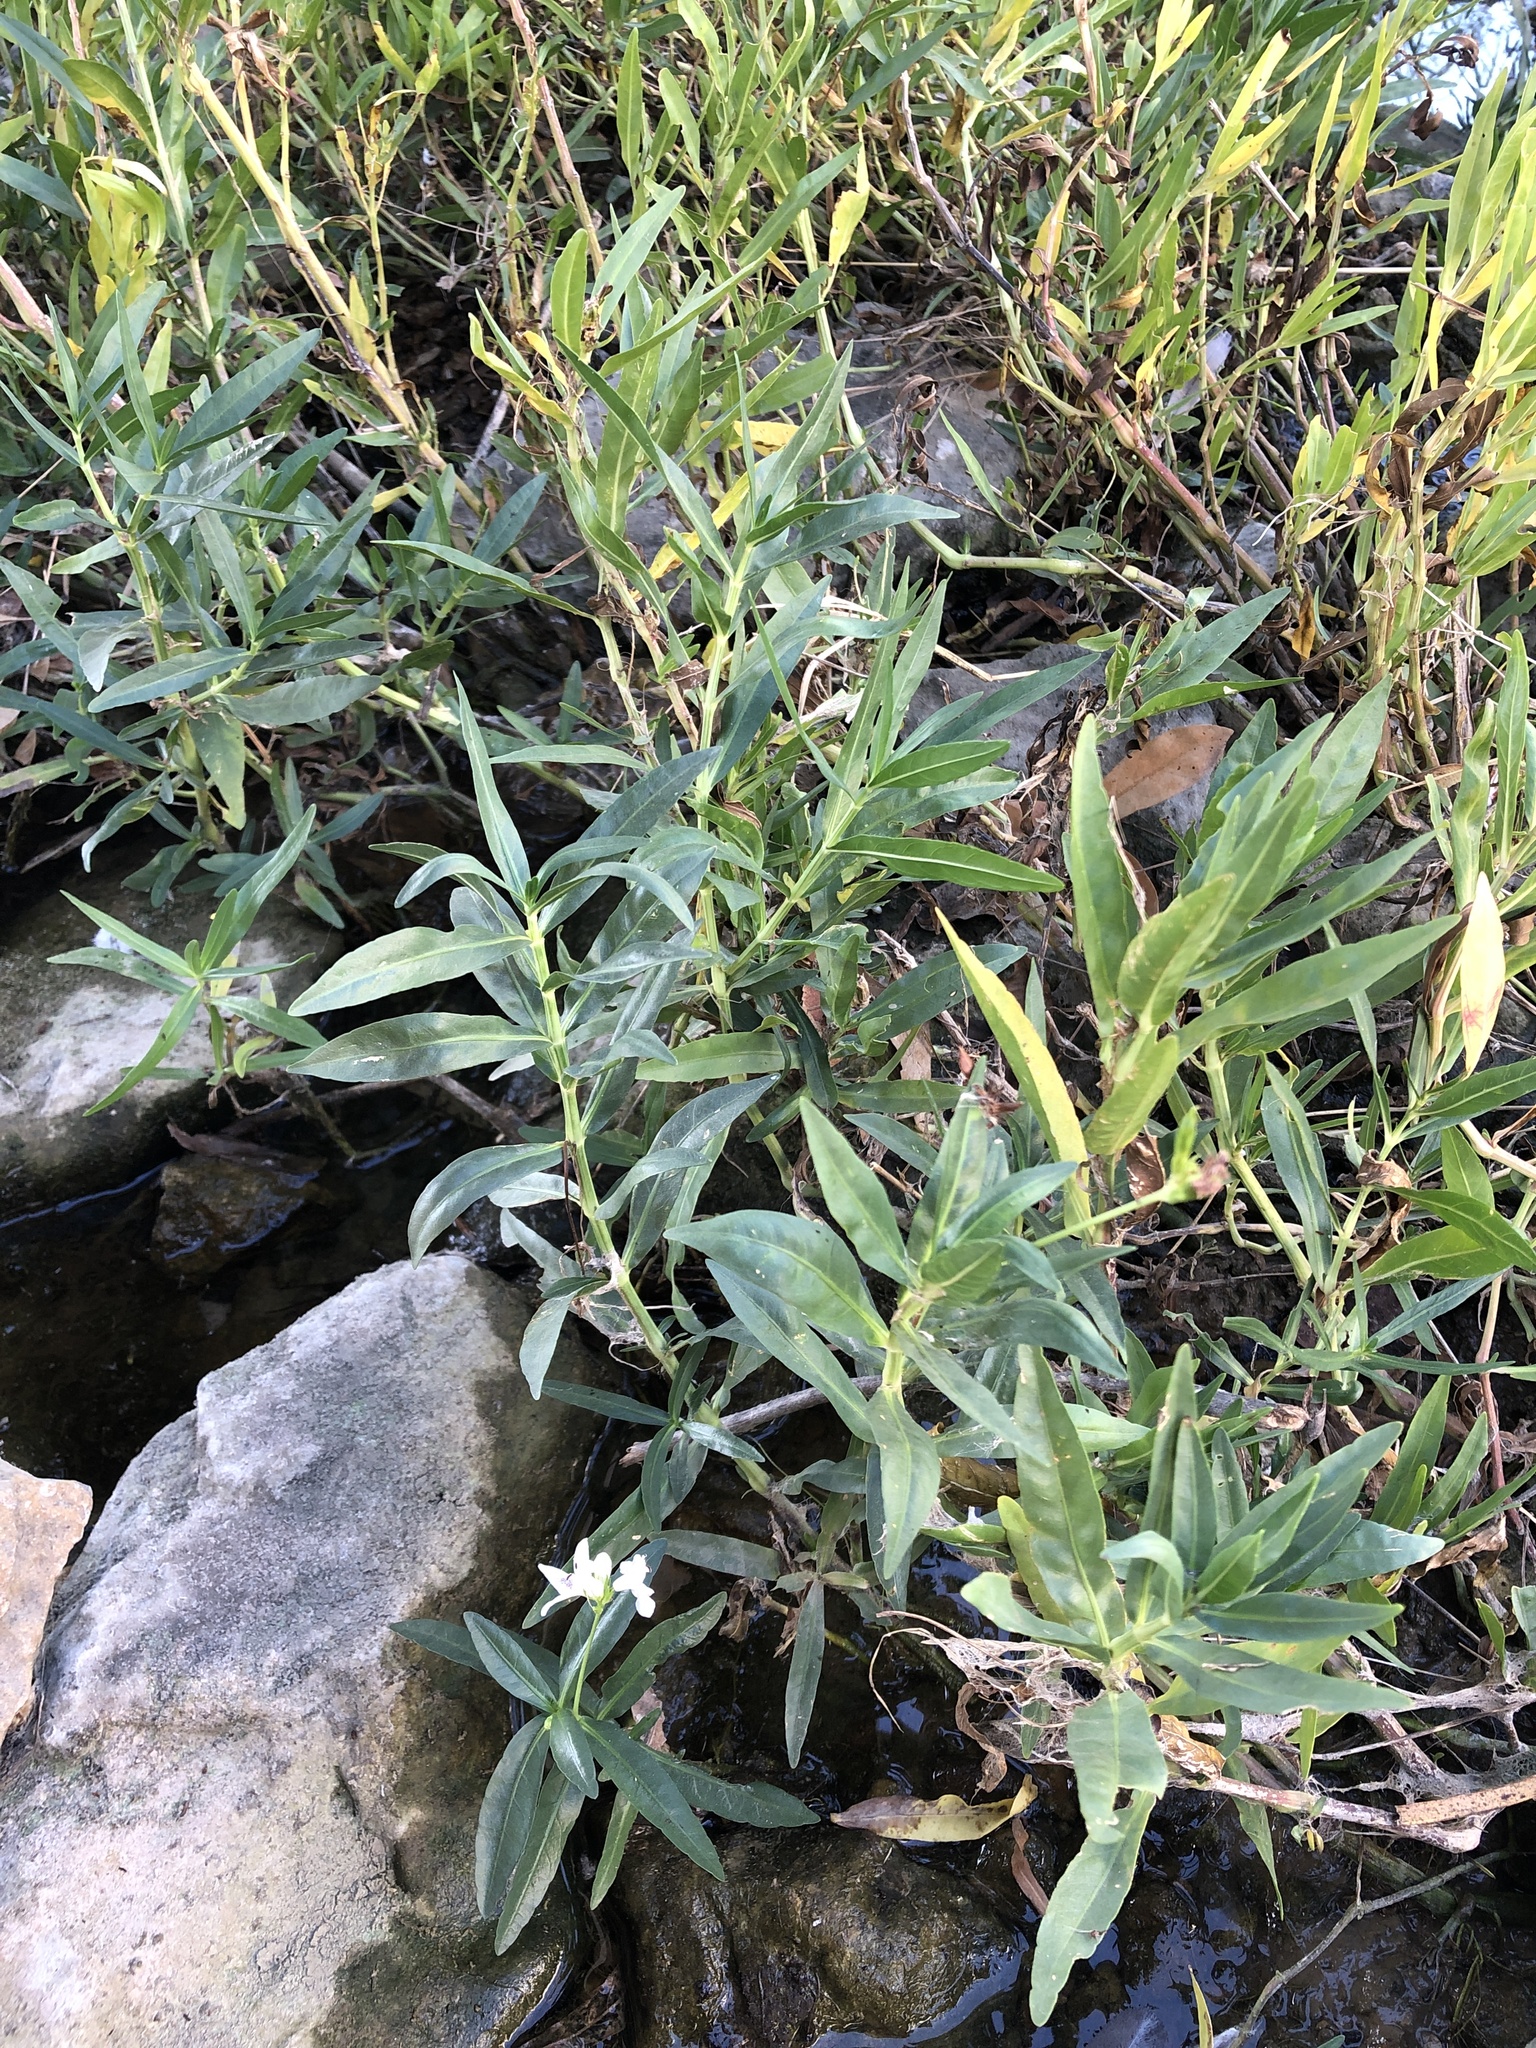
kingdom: Plantae
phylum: Tracheophyta
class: Magnoliopsida
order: Lamiales
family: Acanthaceae
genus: Dianthera
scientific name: Dianthera americana
